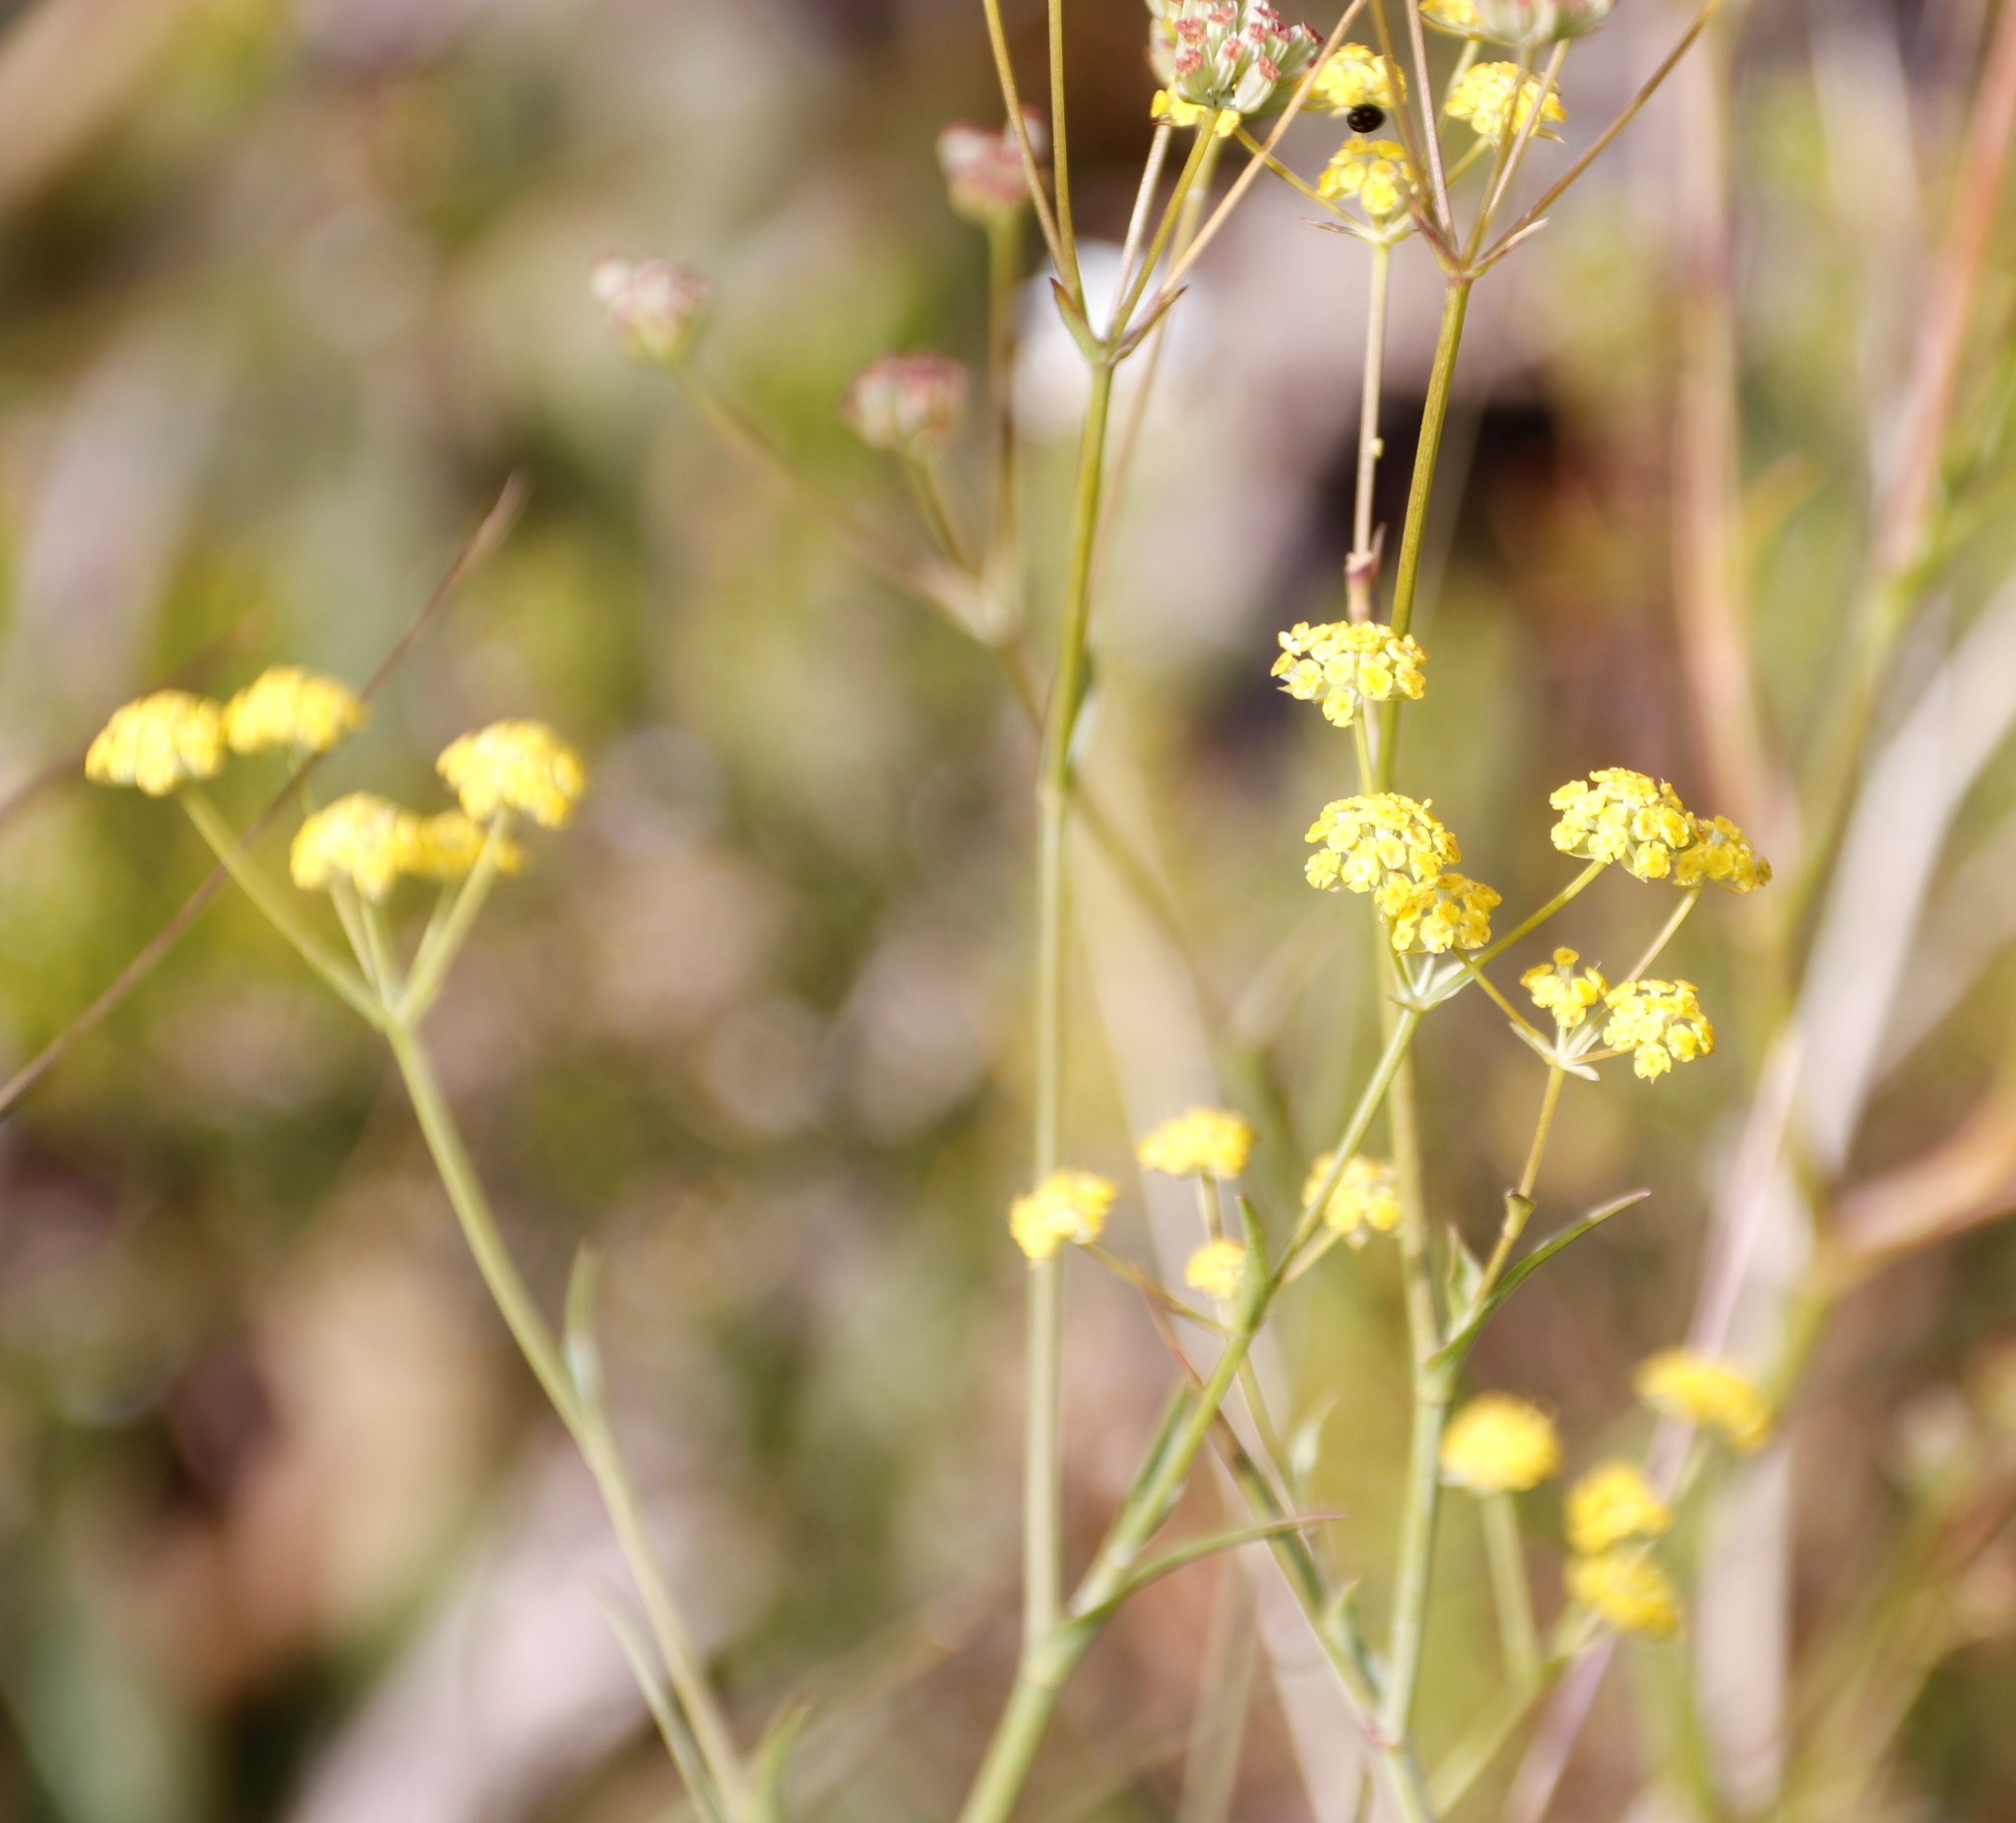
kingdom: Plantae
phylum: Tracheophyta
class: Magnoliopsida
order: Apiales
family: Apiaceae
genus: Bupleurum
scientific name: Bupleurum mundii
